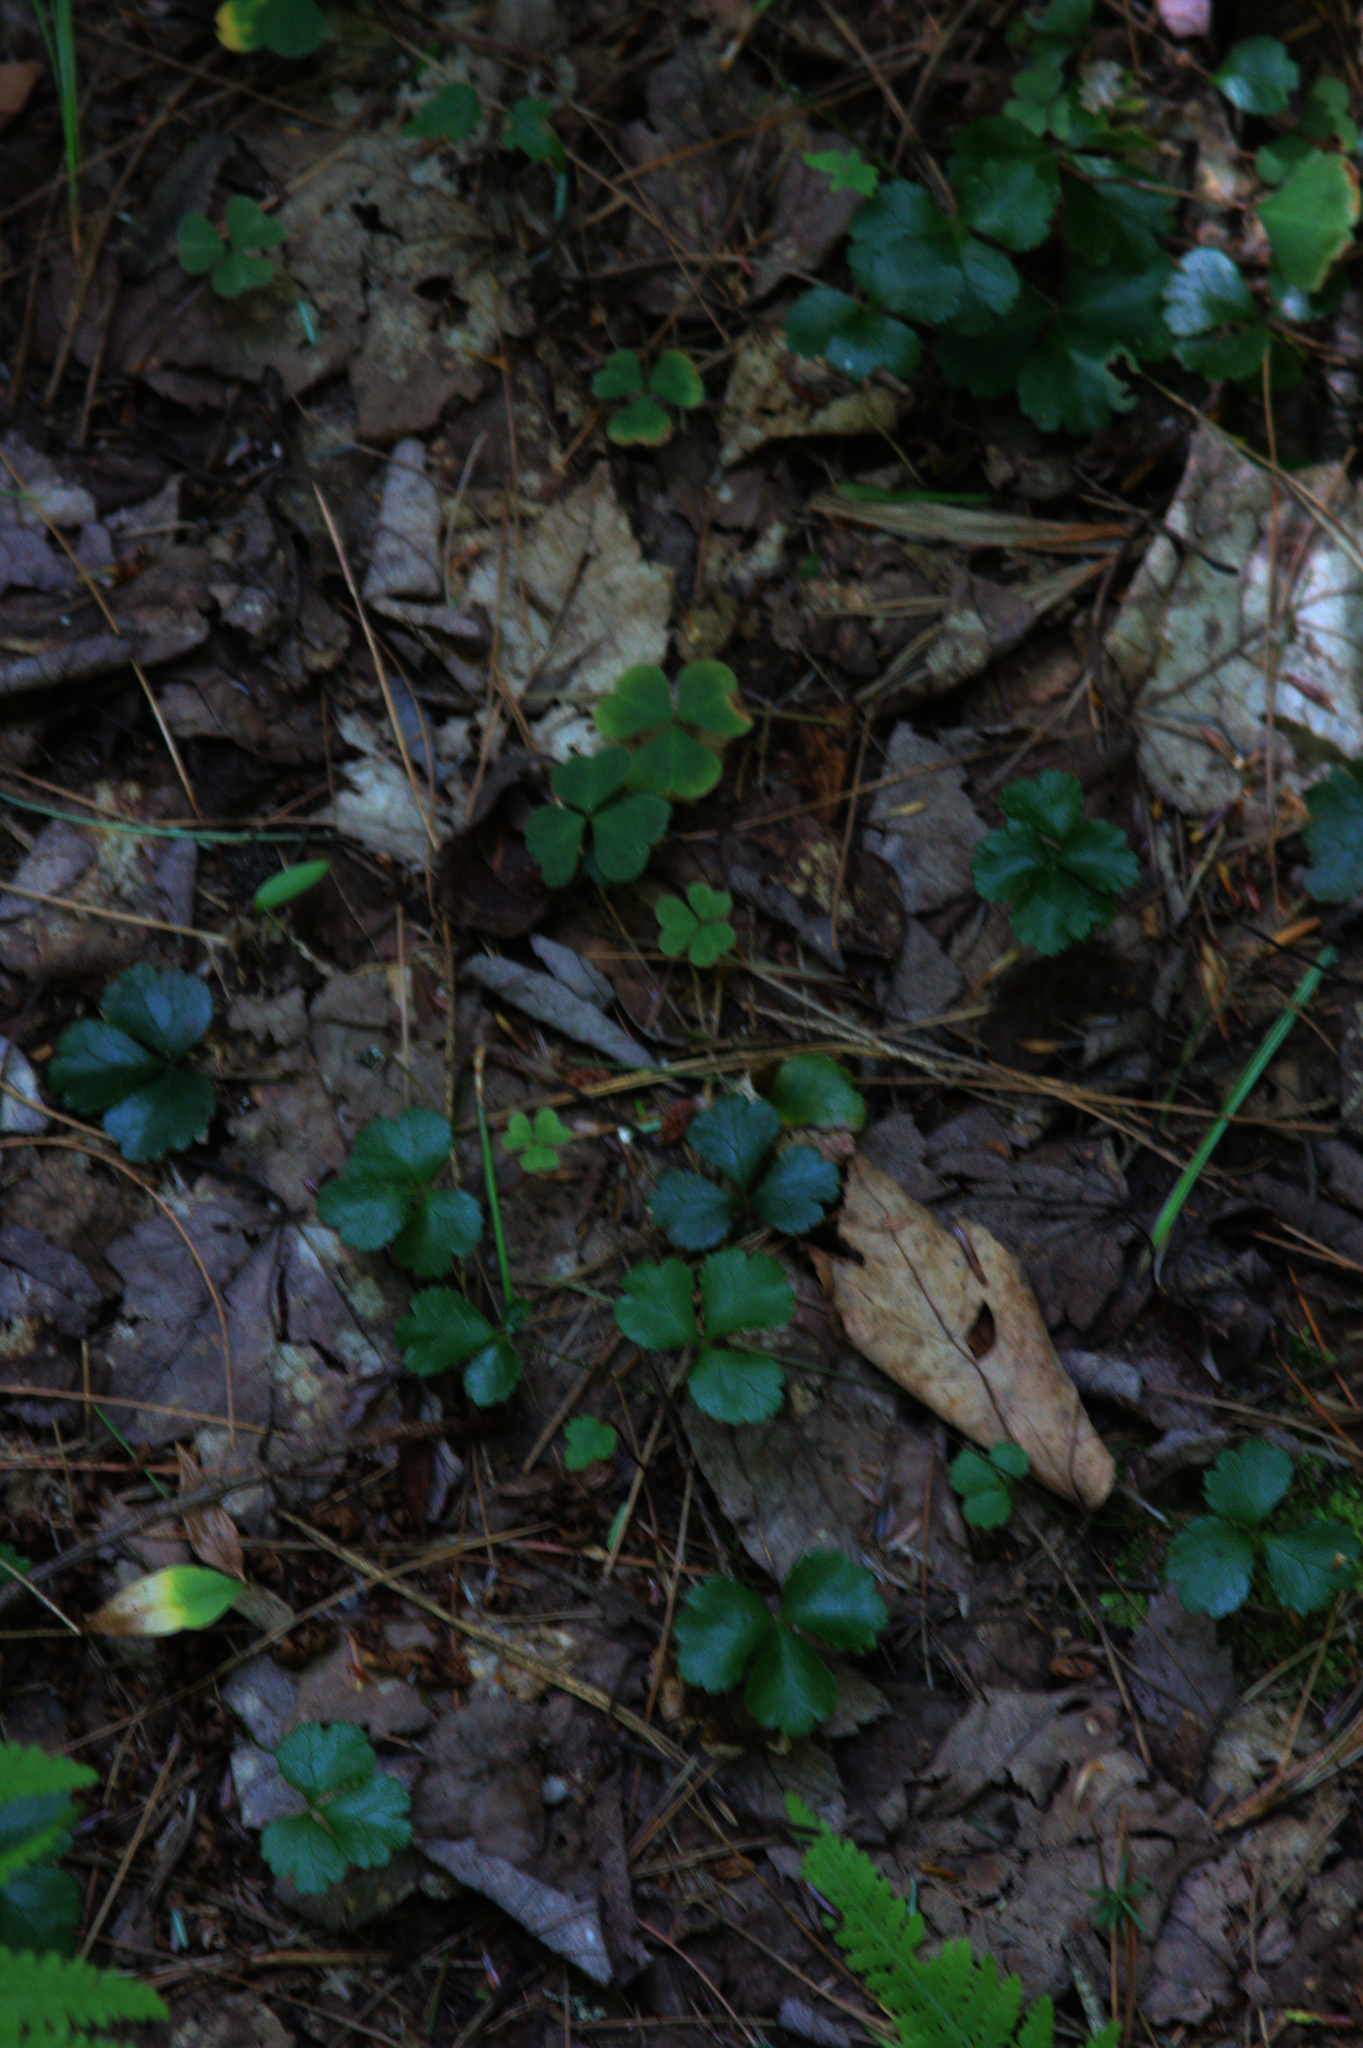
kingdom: Plantae
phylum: Tracheophyta
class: Magnoliopsida
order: Ranunculales
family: Ranunculaceae
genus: Coptis
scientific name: Coptis trifolia
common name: Canker-root
